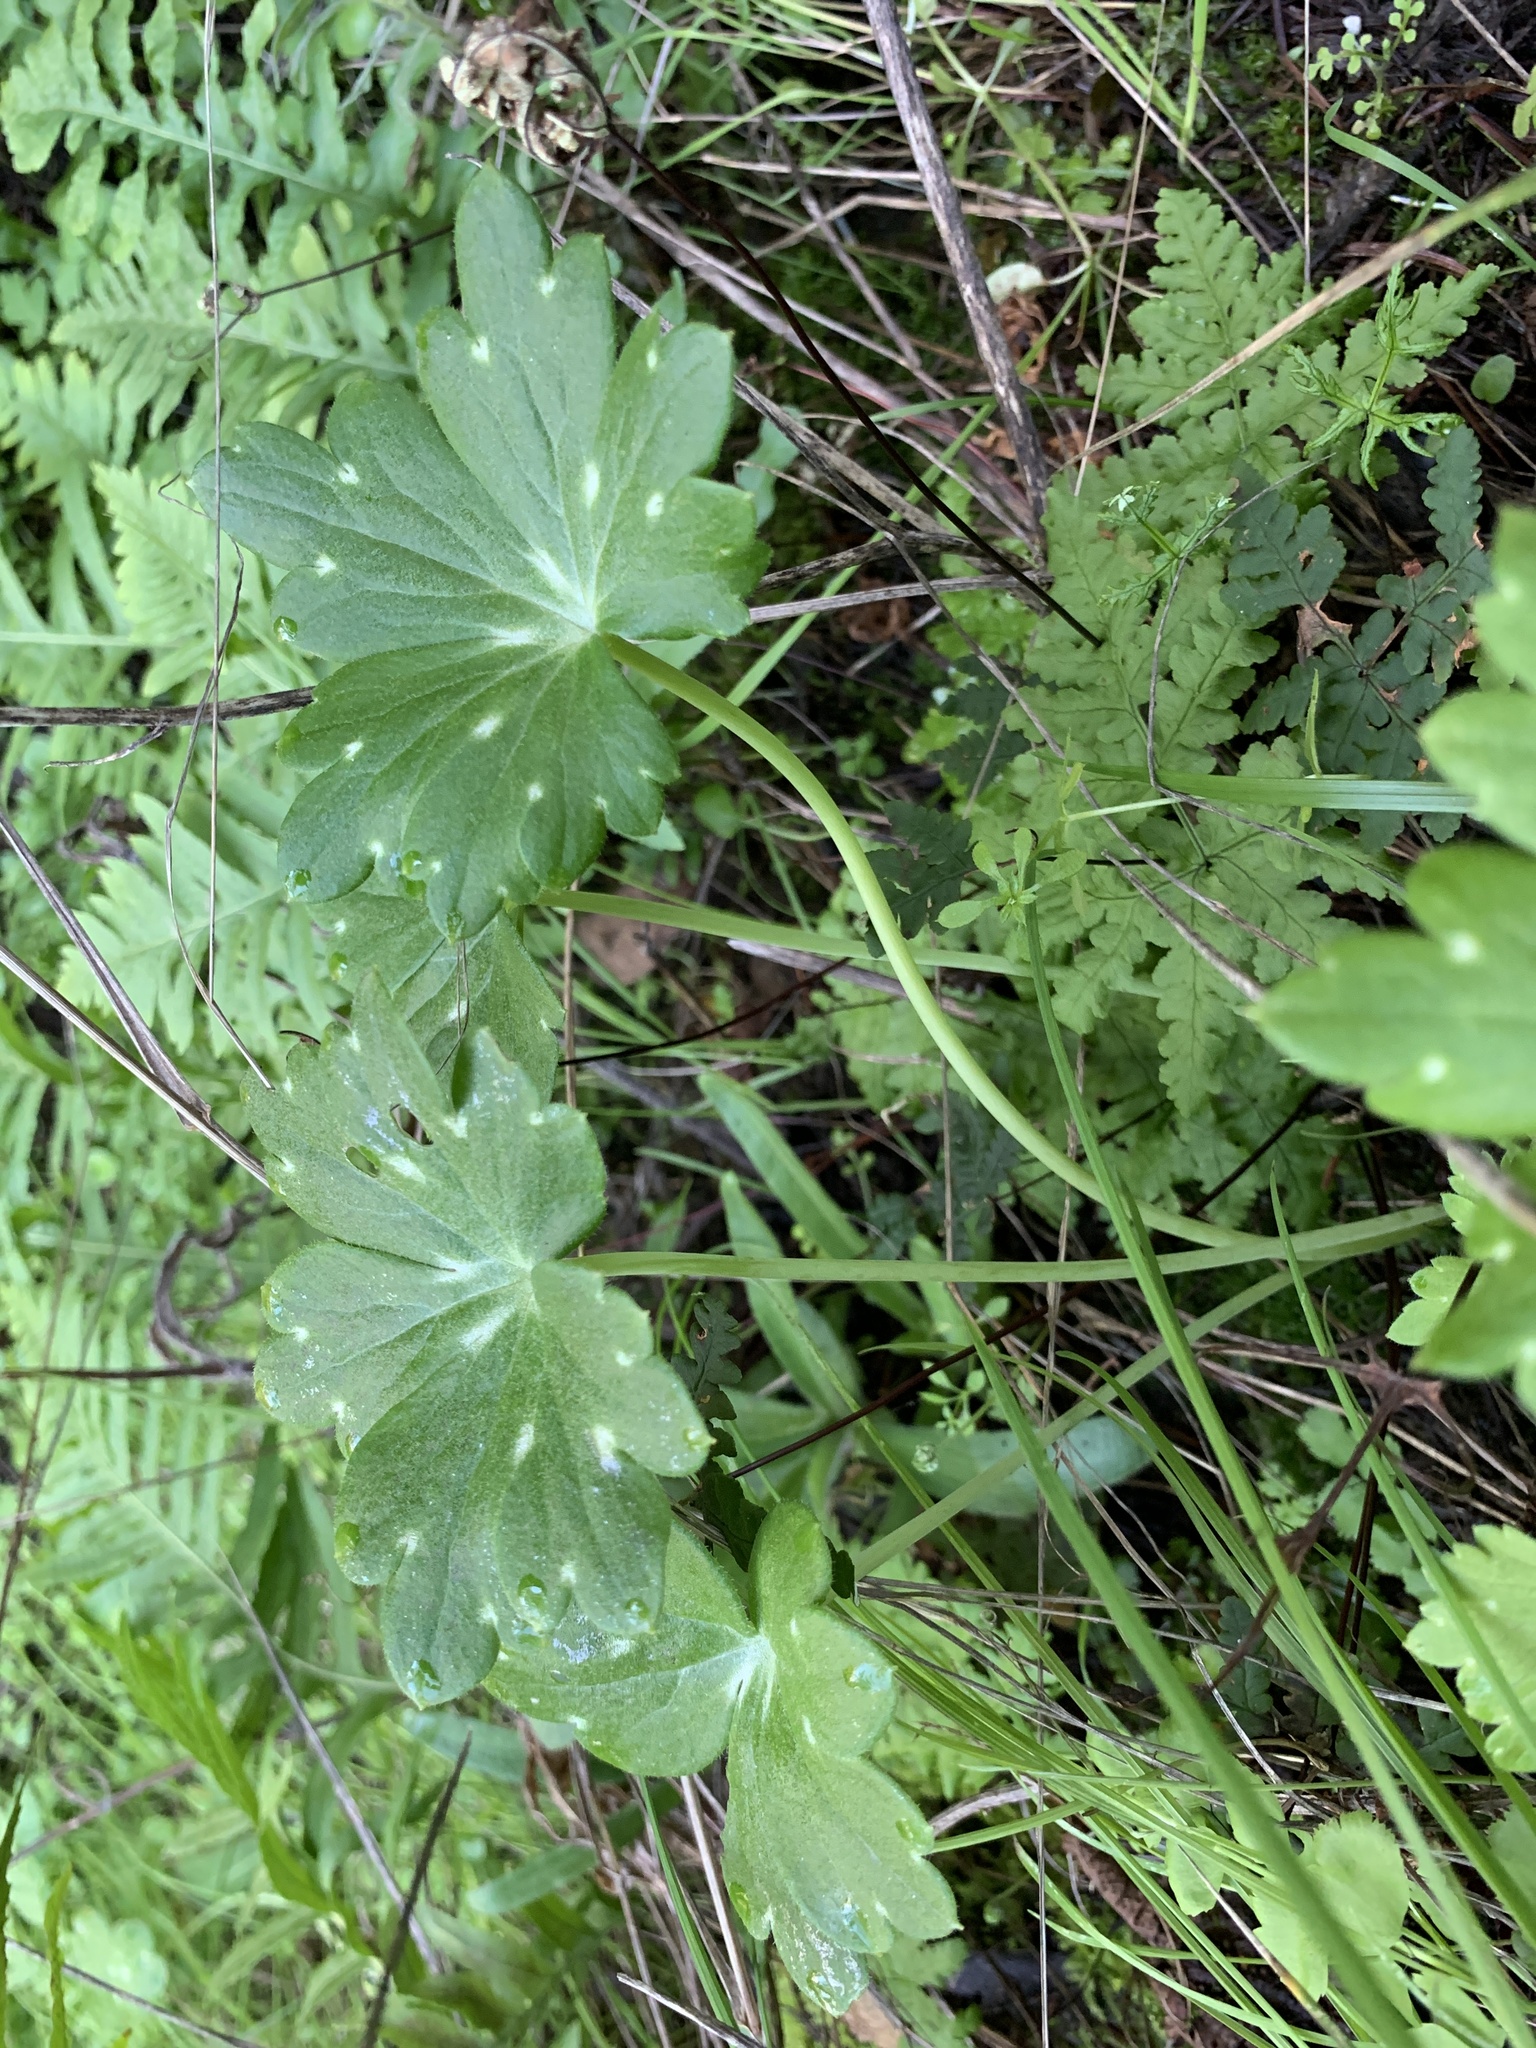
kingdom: Plantae
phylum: Tracheophyta
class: Magnoliopsida
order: Ranunculales
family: Ranunculaceae
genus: Delphinium
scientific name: Delphinium nudicaule
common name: Red larkspur
